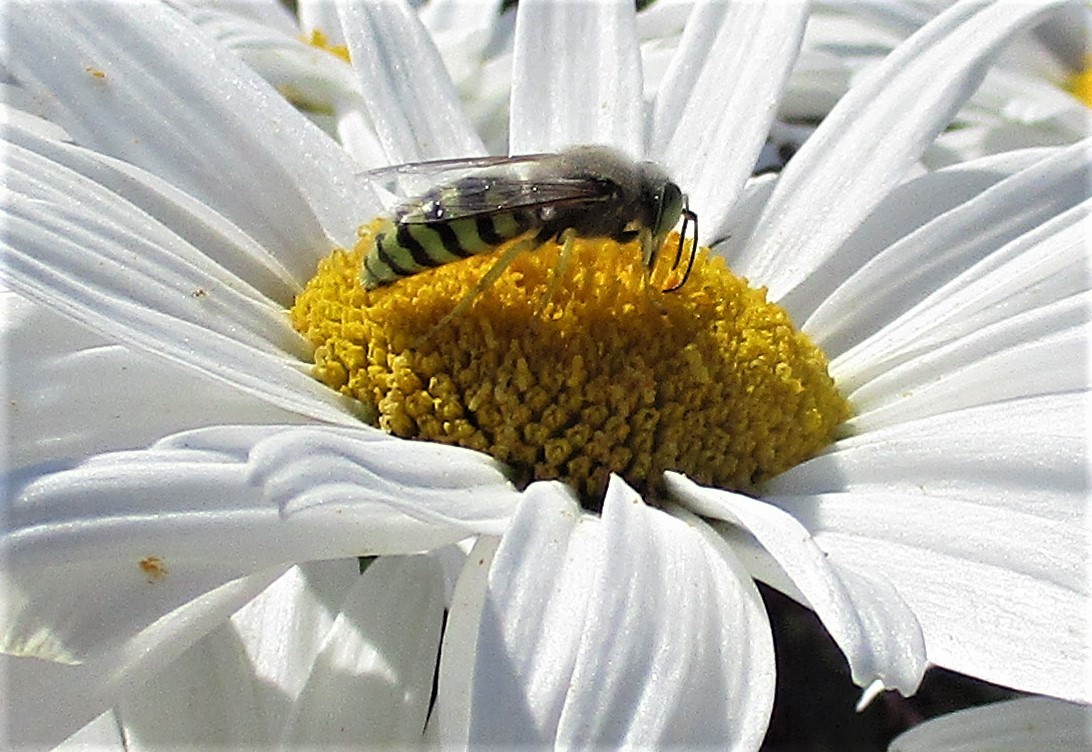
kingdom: Animalia
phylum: Arthropoda
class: Insecta
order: Hymenoptera
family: Crabronidae
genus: Bembix
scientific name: Bembix americana
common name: American sand wasp
